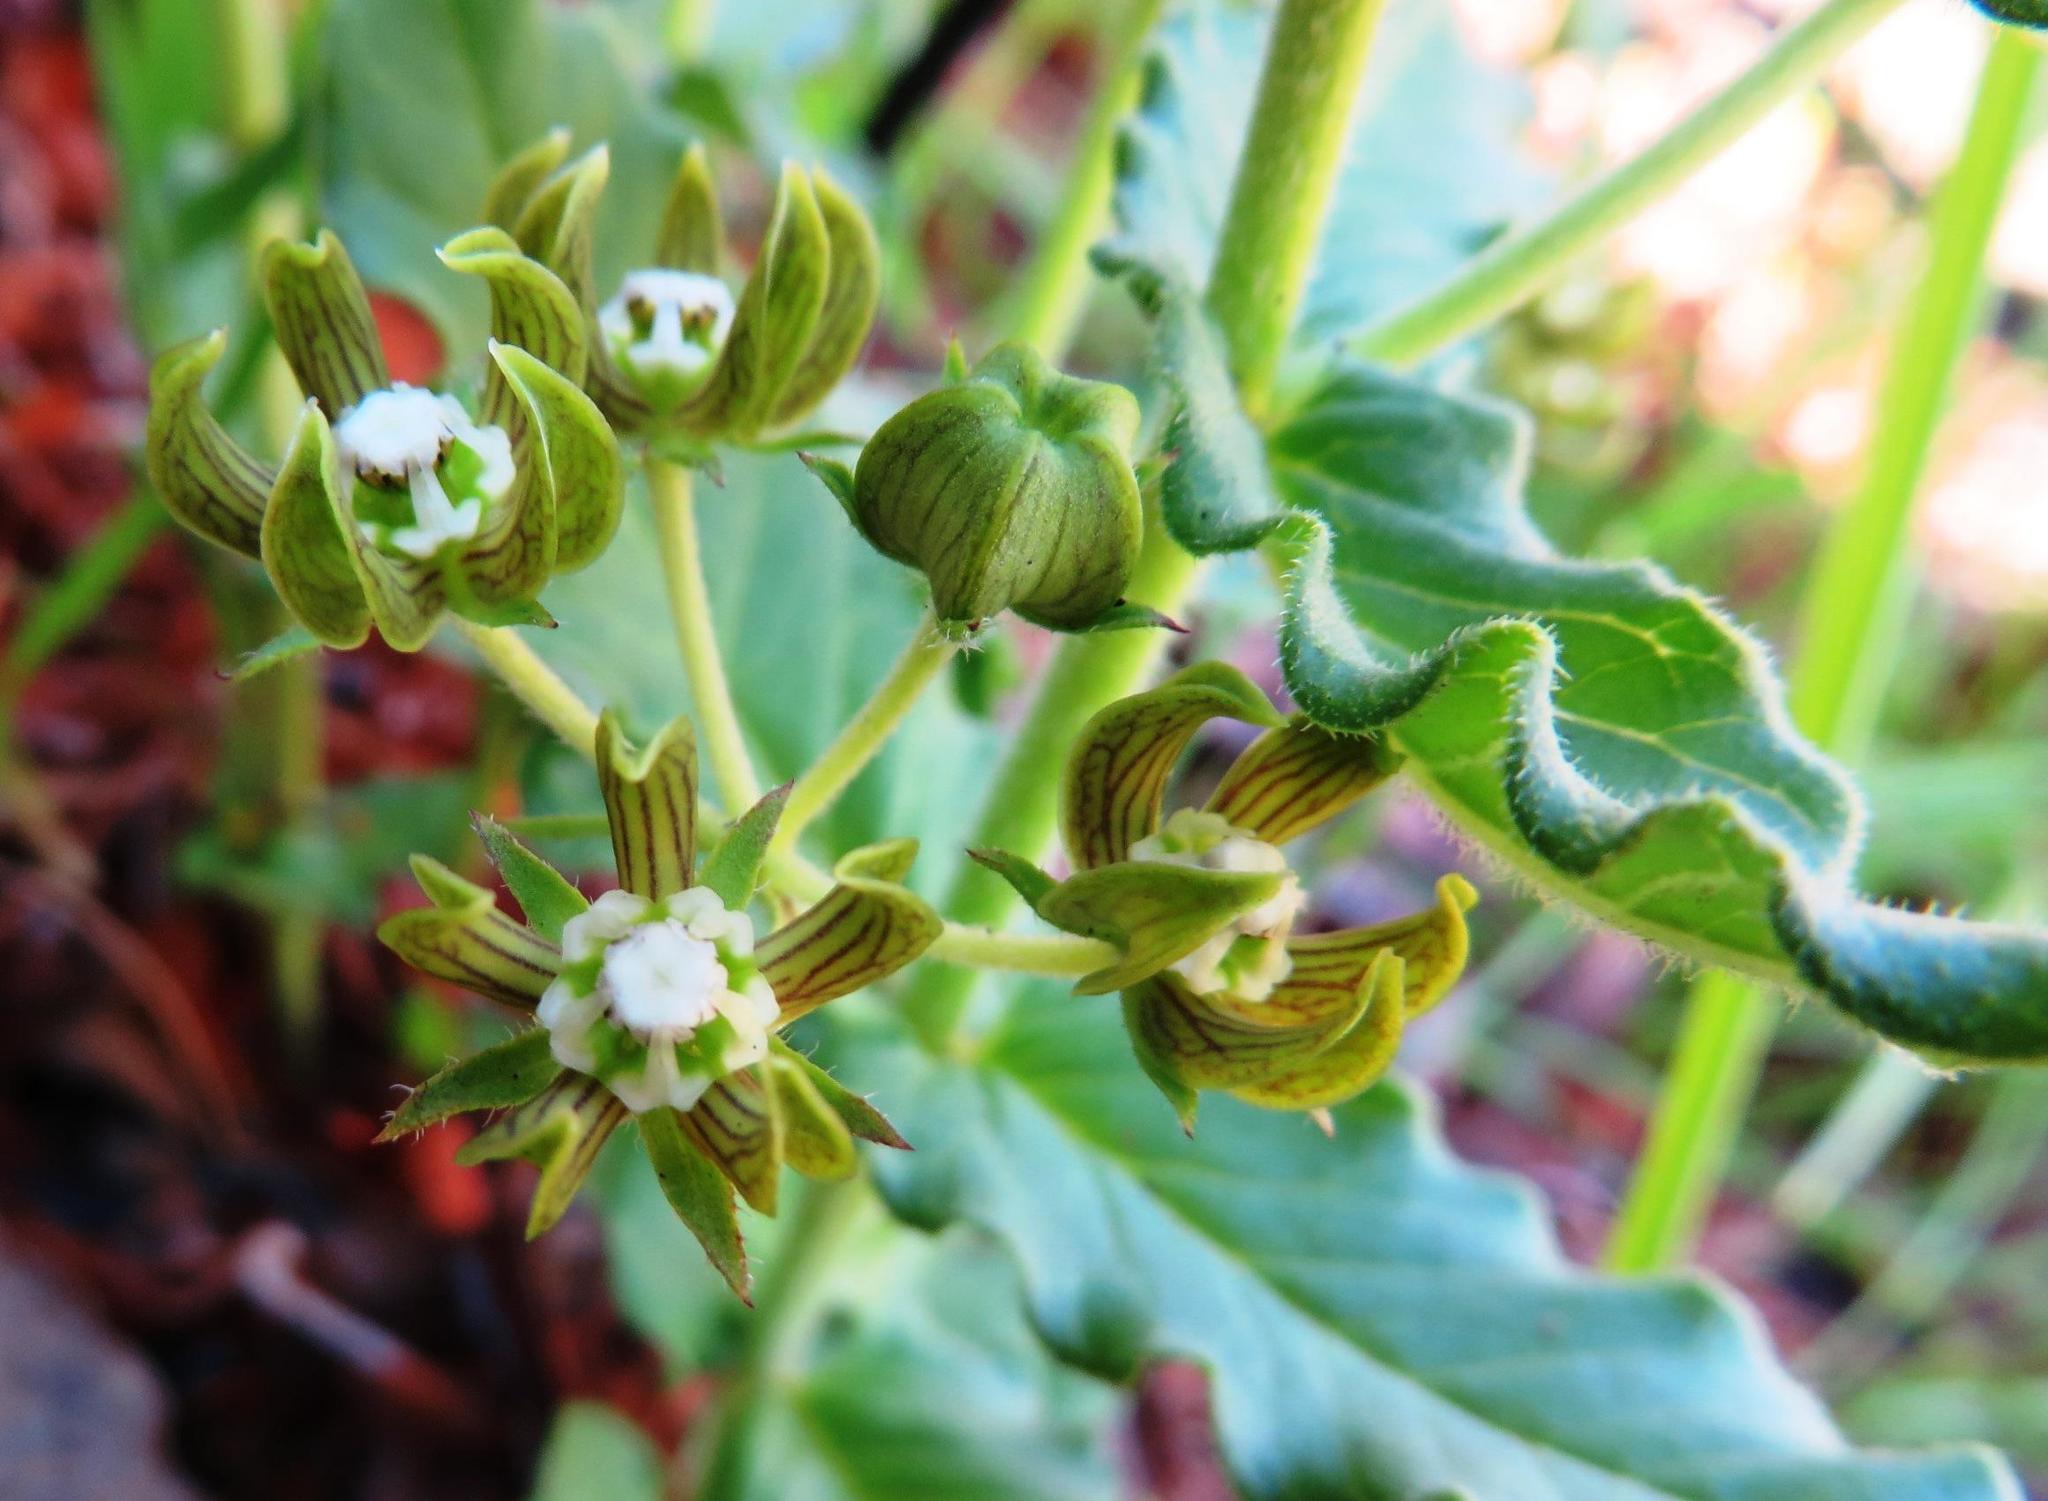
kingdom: Plantae
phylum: Tracheophyta
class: Magnoliopsida
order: Gentianales
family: Apocynaceae
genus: Schizoglossum
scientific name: Schizoglossum cordifolium
